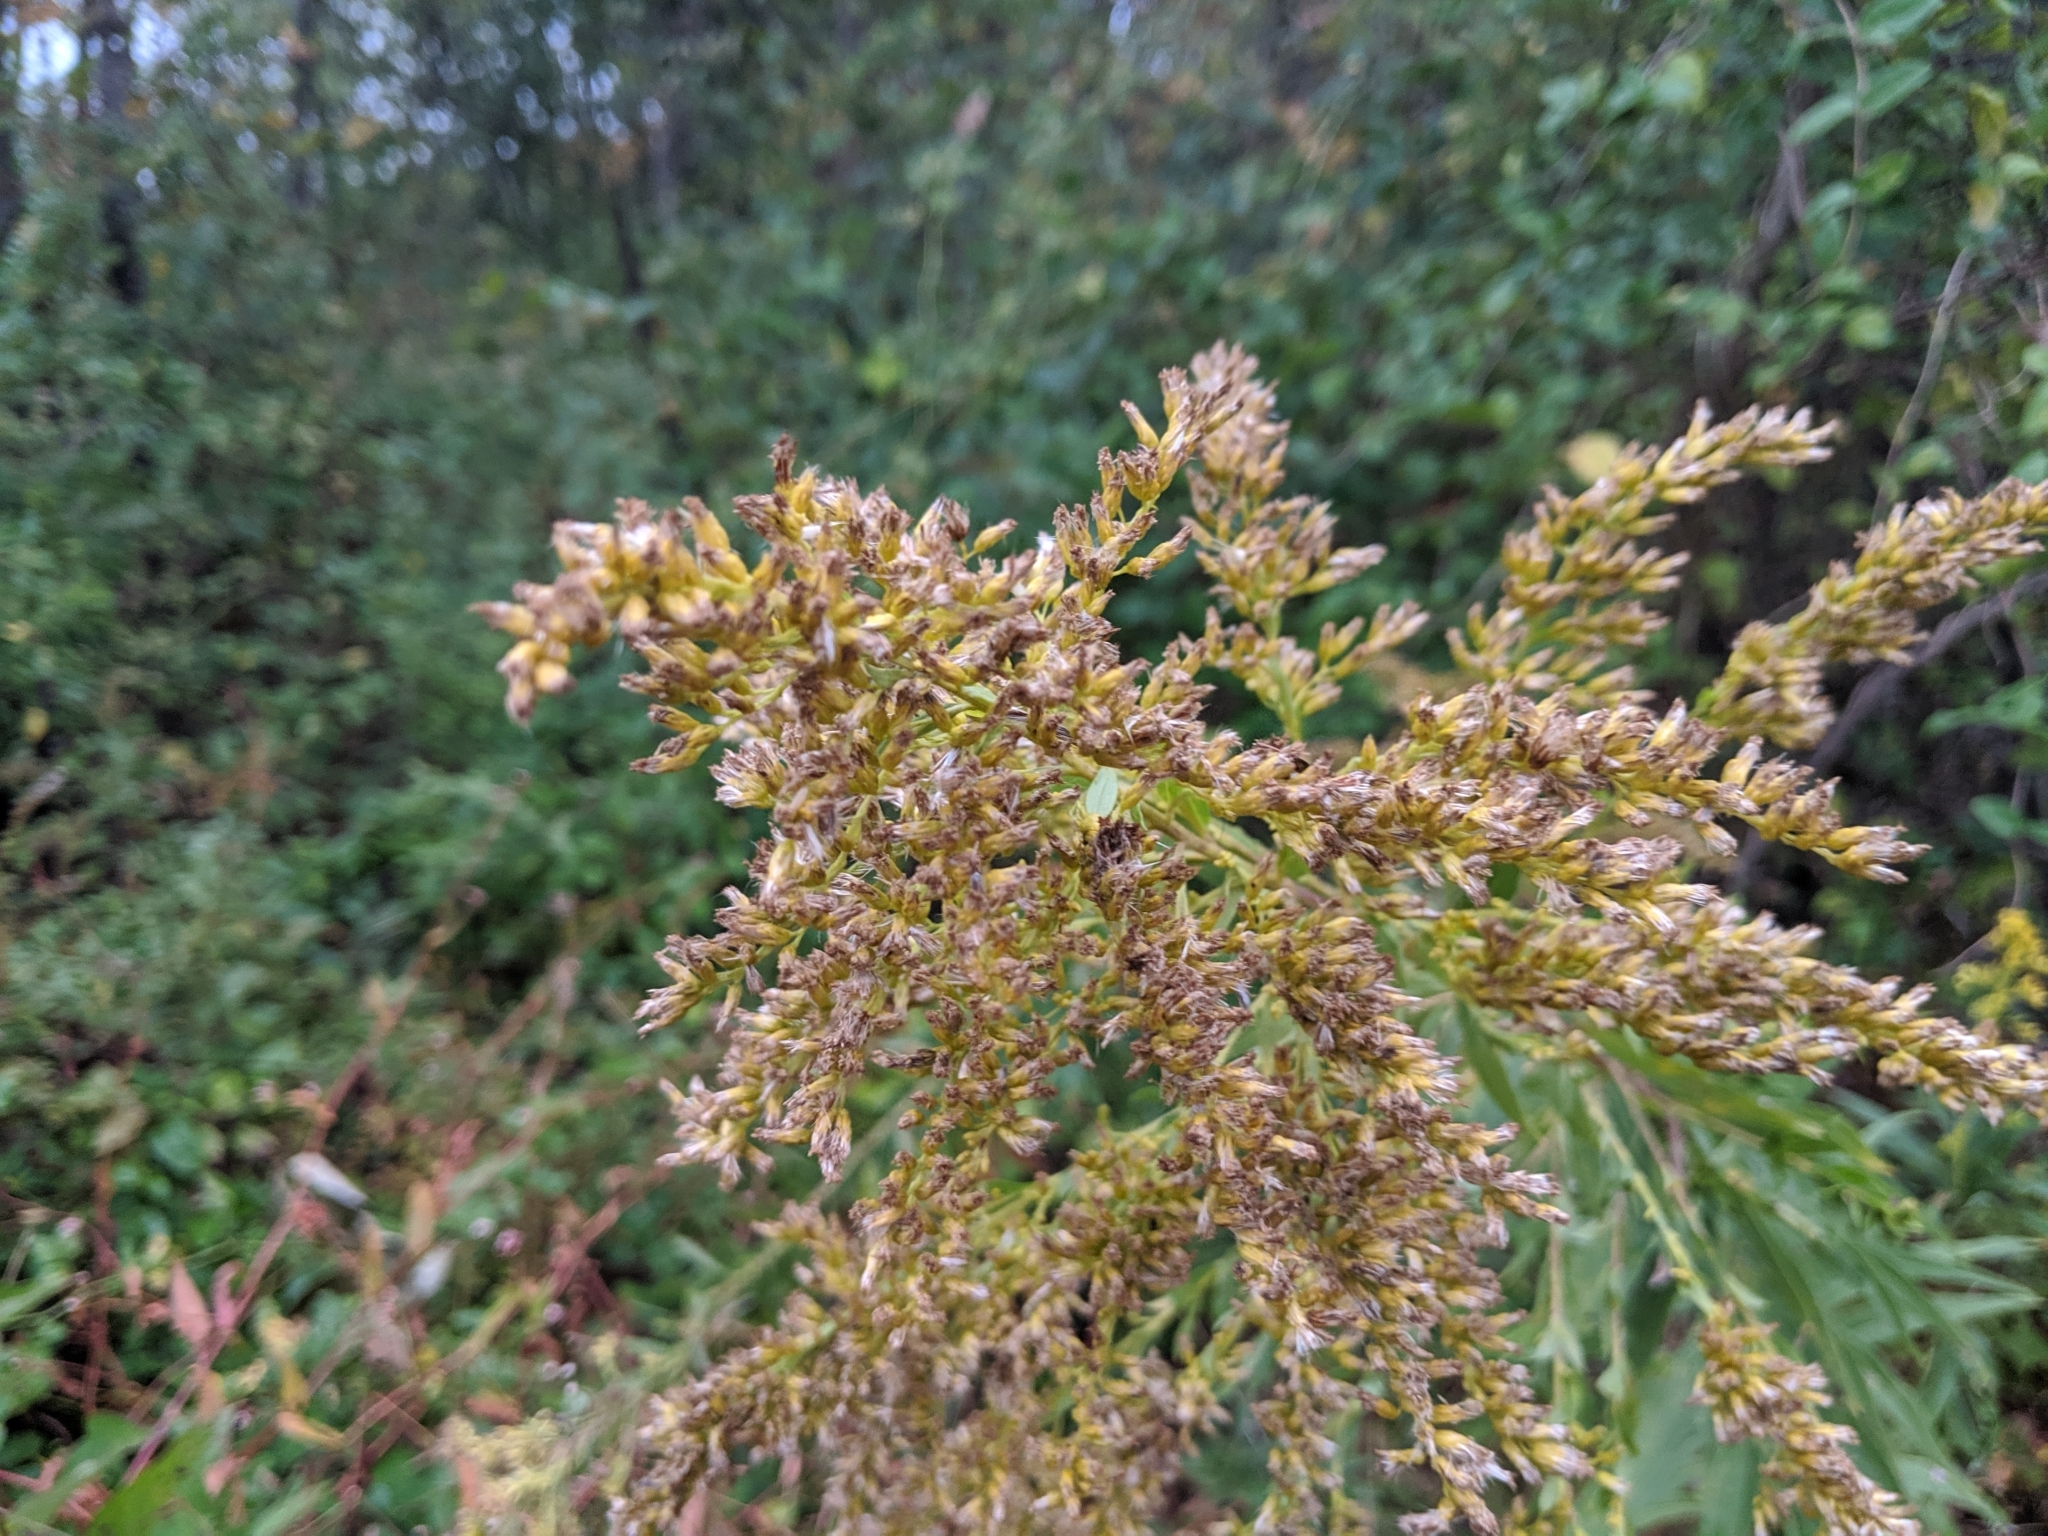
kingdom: Plantae
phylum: Tracheophyta
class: Magnoliopsida
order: Asterales
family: Asteraceae
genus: Solidago
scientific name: Solidago altissima
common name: Late goldenrod
